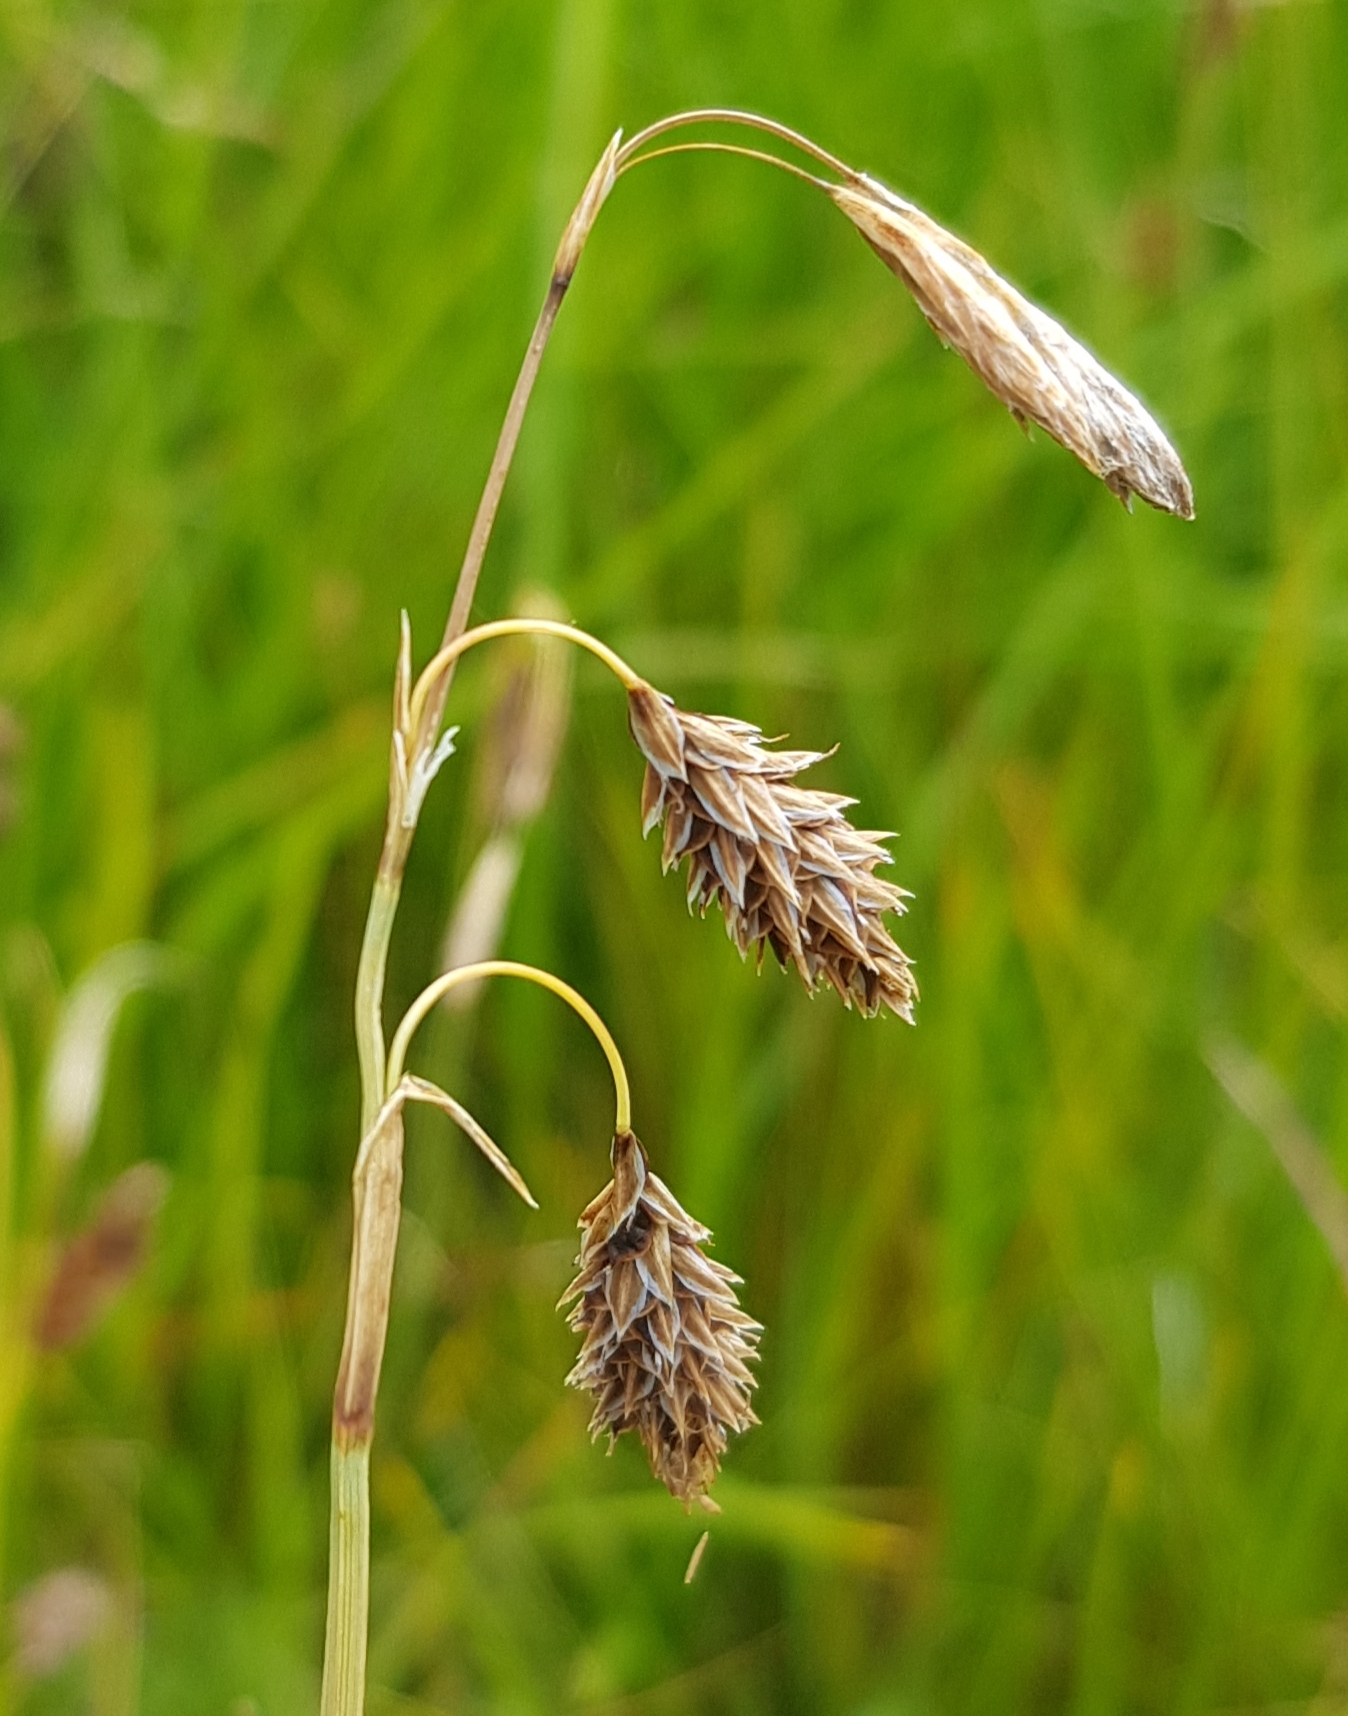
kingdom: Plantae
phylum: Tracheophyta
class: Liliopsida
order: Poales
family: Cyperaceae
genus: Carex
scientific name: Carex aterrima
